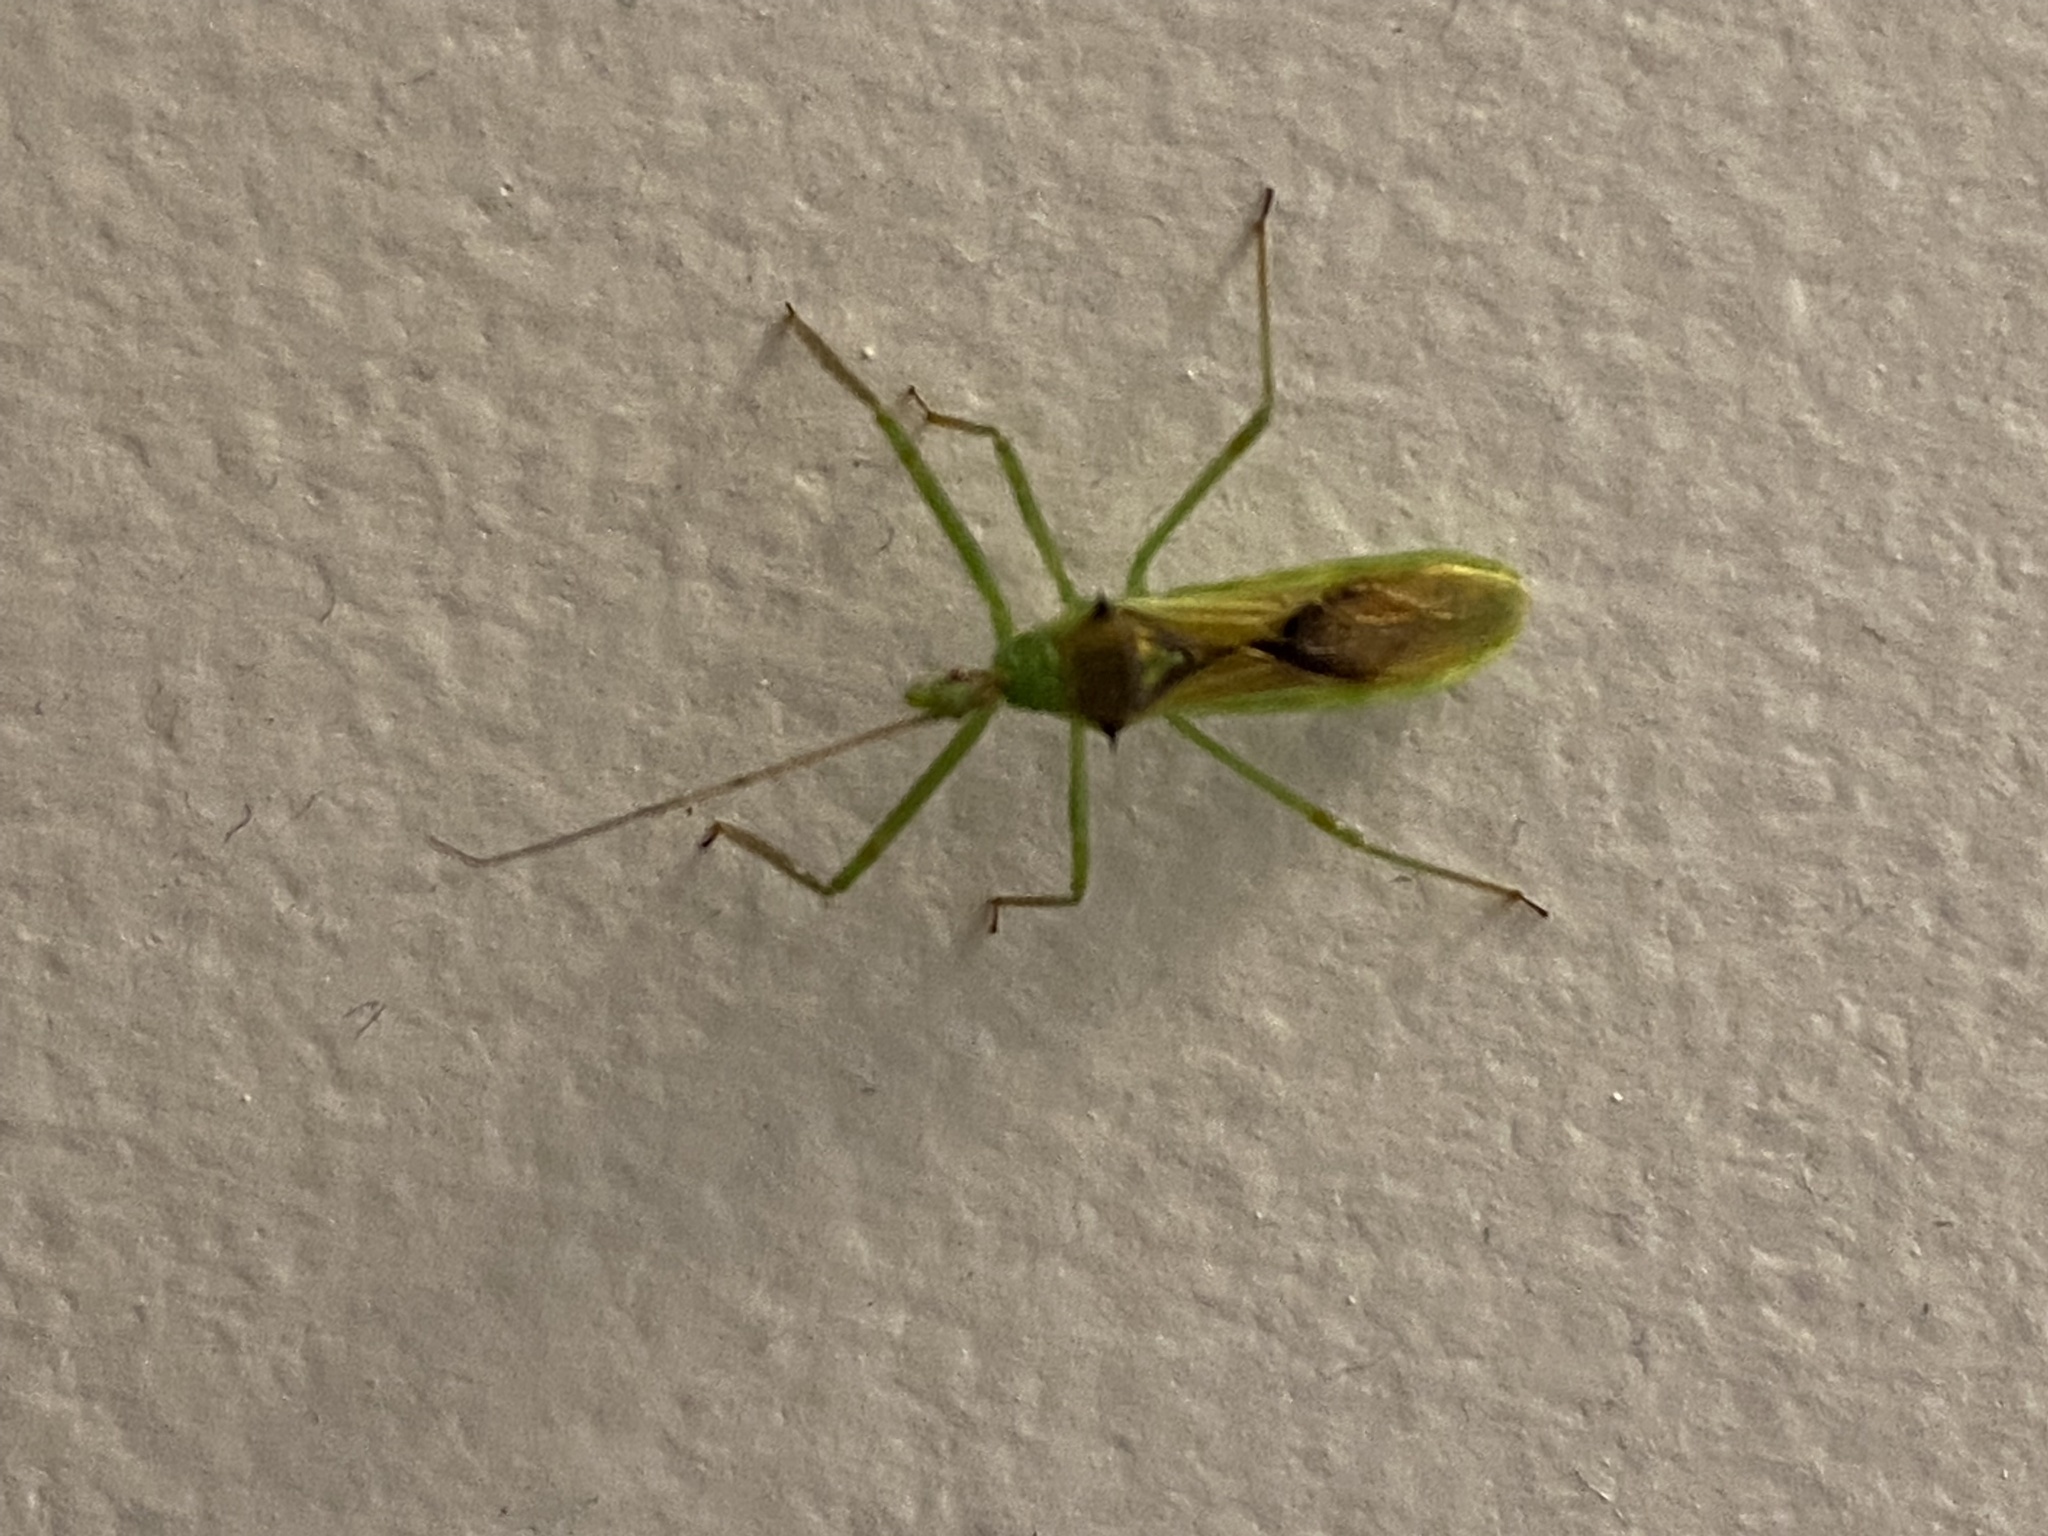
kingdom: Animalia
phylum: Arthropoda
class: Insecta
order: Hemiptera
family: Reduviidae
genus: Zelus
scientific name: Zelus luridus
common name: Pale green assassin bug
